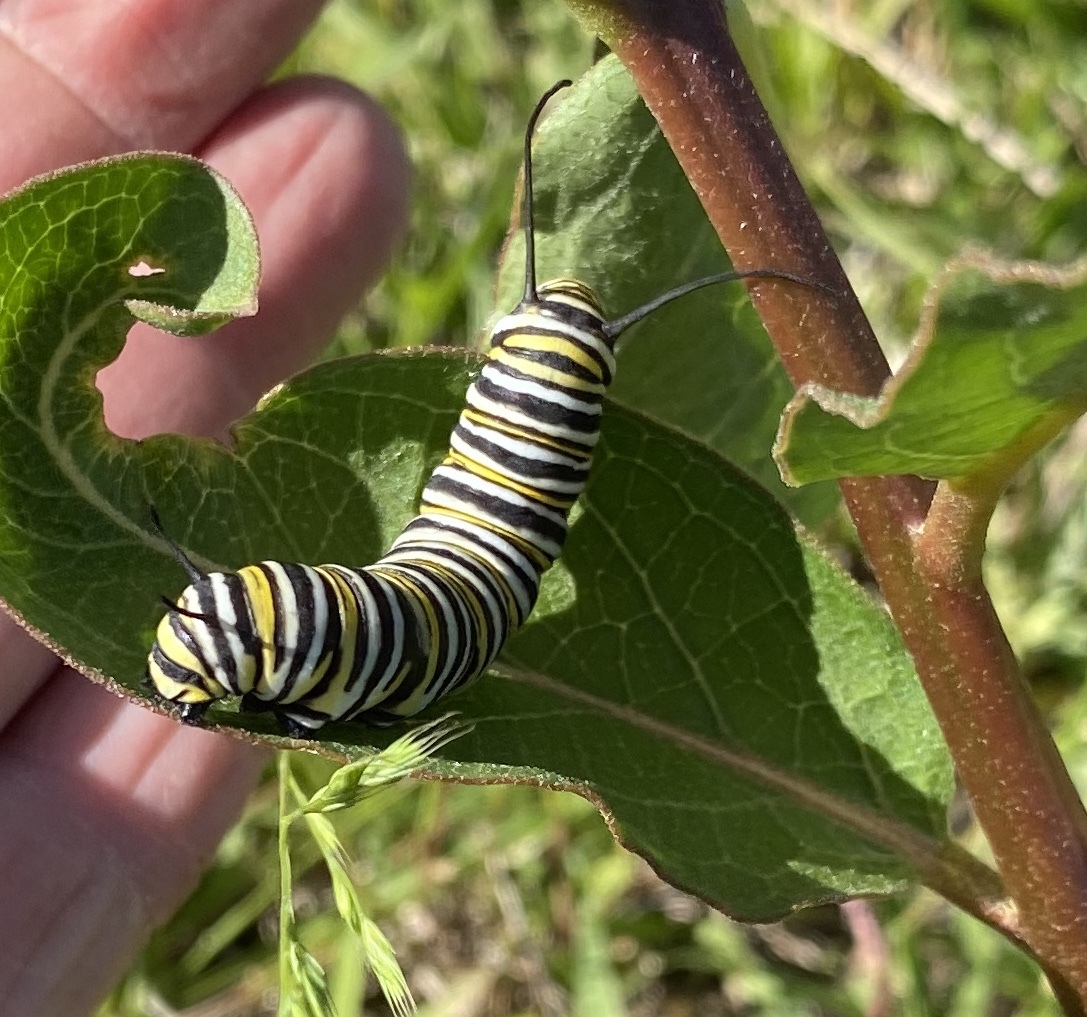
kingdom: Animalia
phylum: Arthropoda
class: Insecta
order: Lepidoptera
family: Nymphalidae
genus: Danaus
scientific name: Danaus plexippus
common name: Monarch
